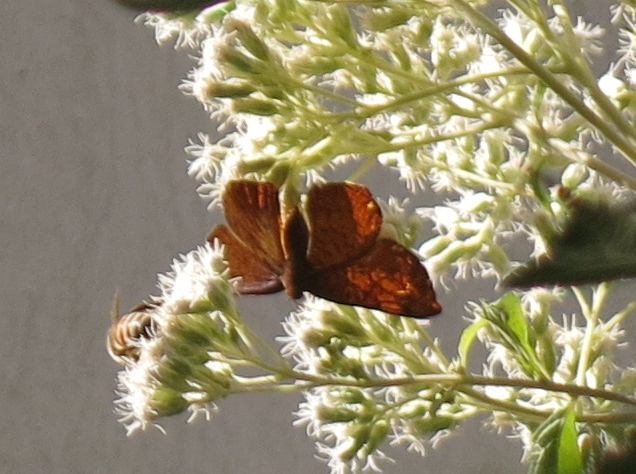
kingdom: Animalia
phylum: Arthropoda
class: Insecta
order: Lepidoptera
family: Lycaenidae
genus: Emesis
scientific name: Emesis russula
